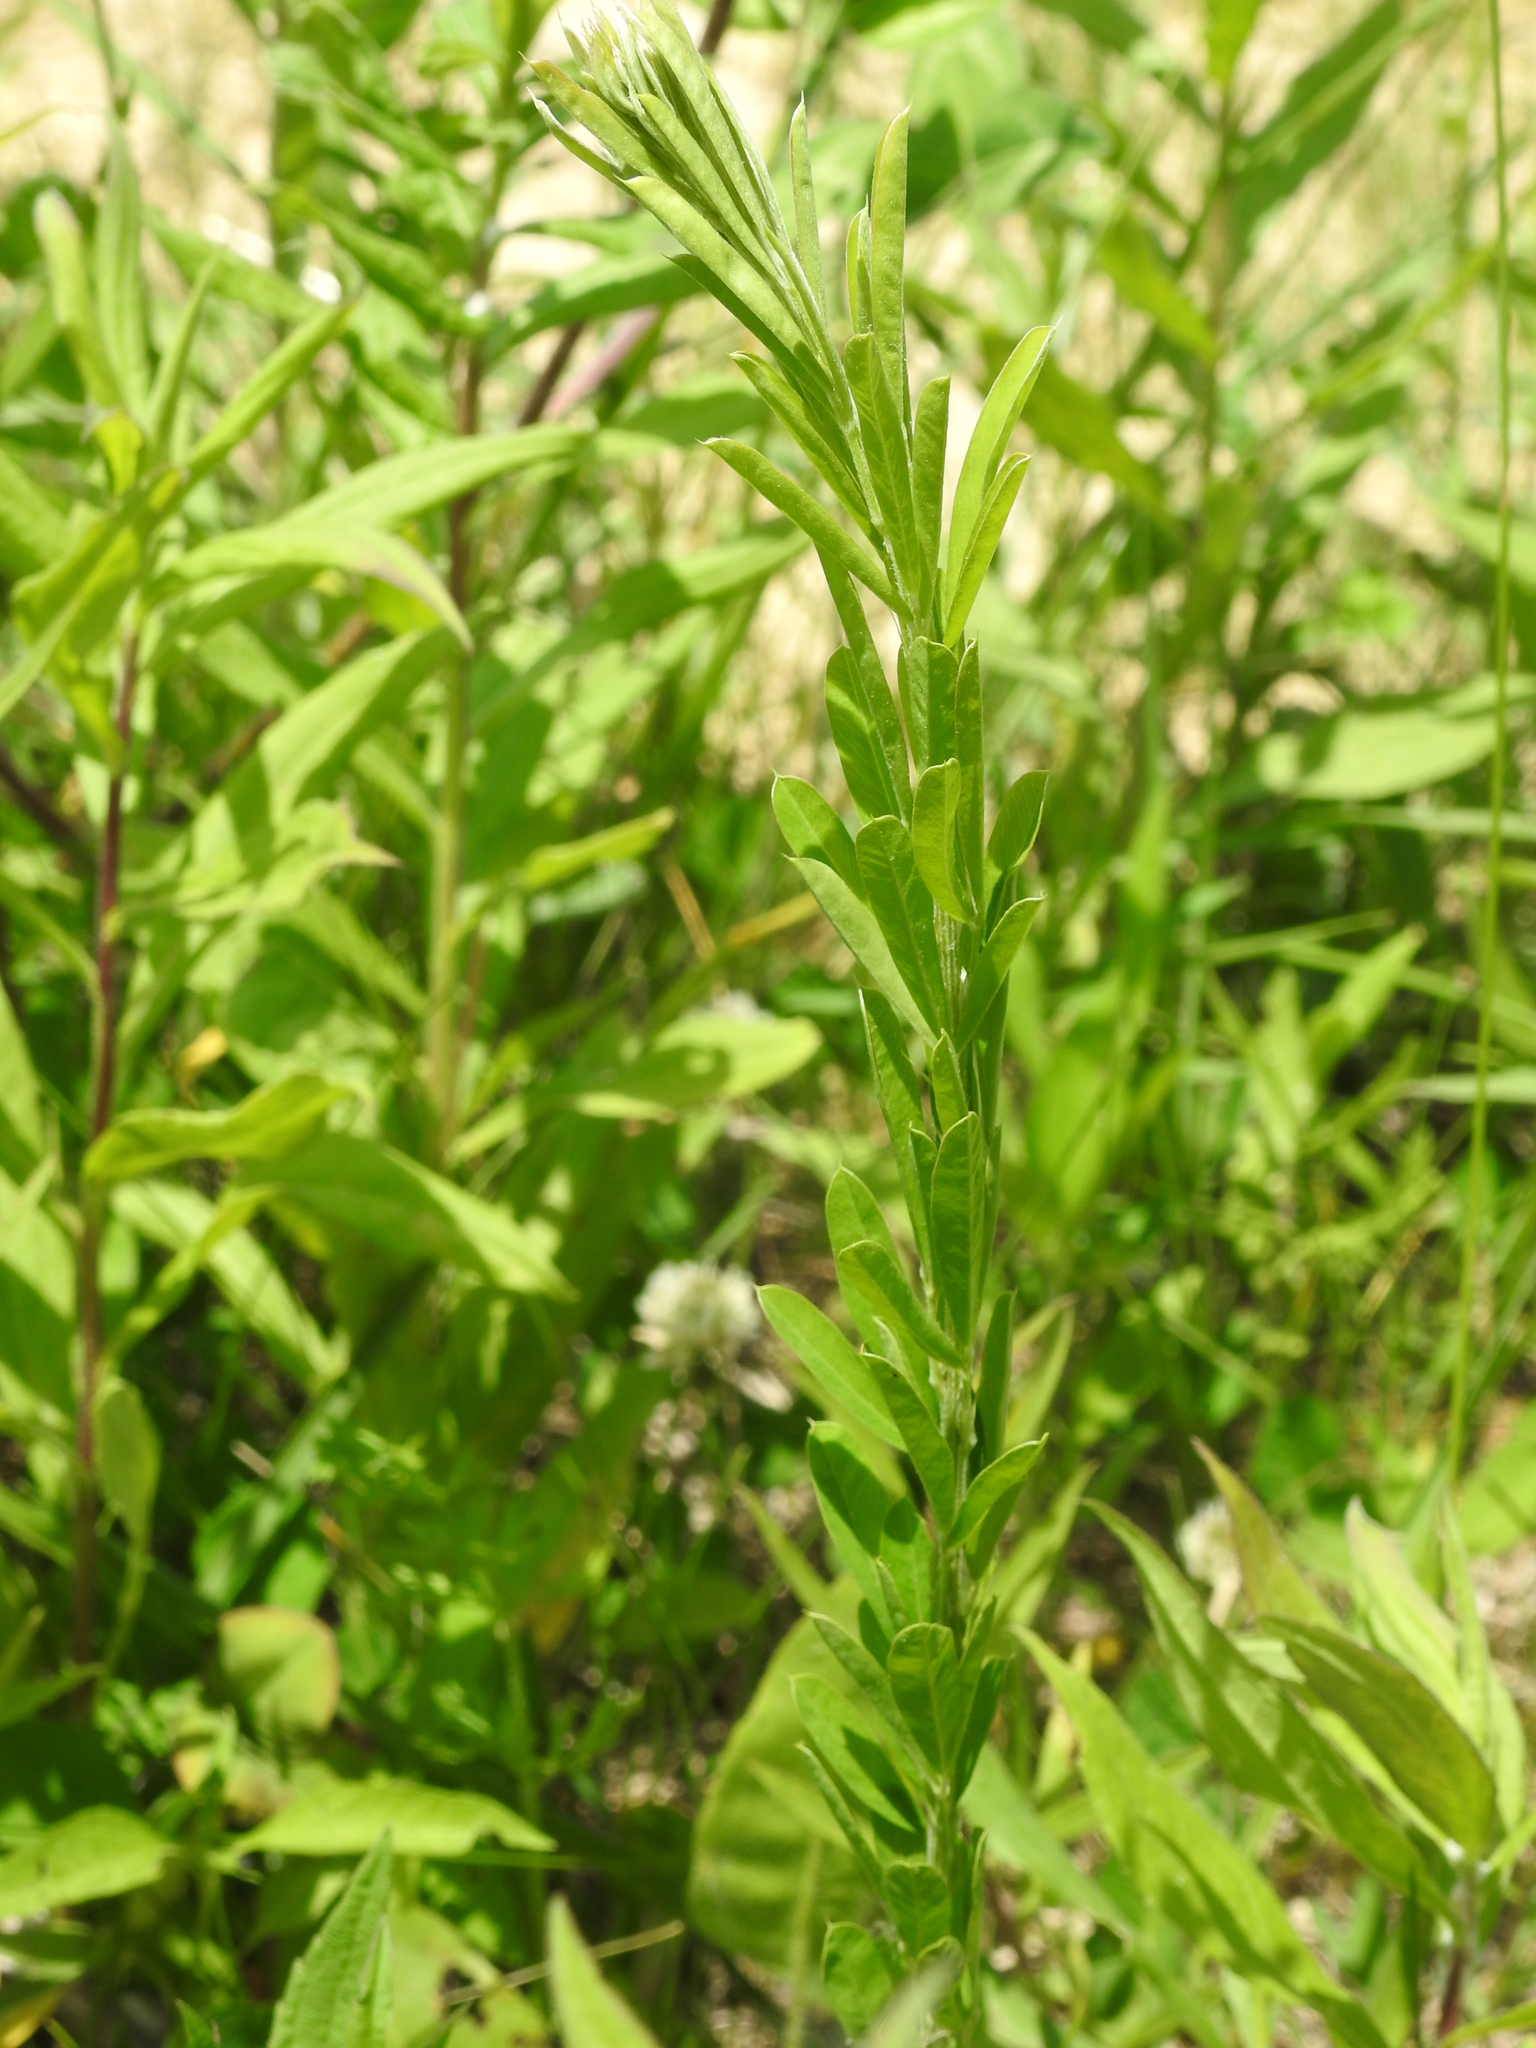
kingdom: Plantae
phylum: Tracheophyta
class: Magnoliopsida
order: Fabales
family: Fabaceae
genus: Lespedeza
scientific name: Lespedeza cuneata
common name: Chinese bush-clover
